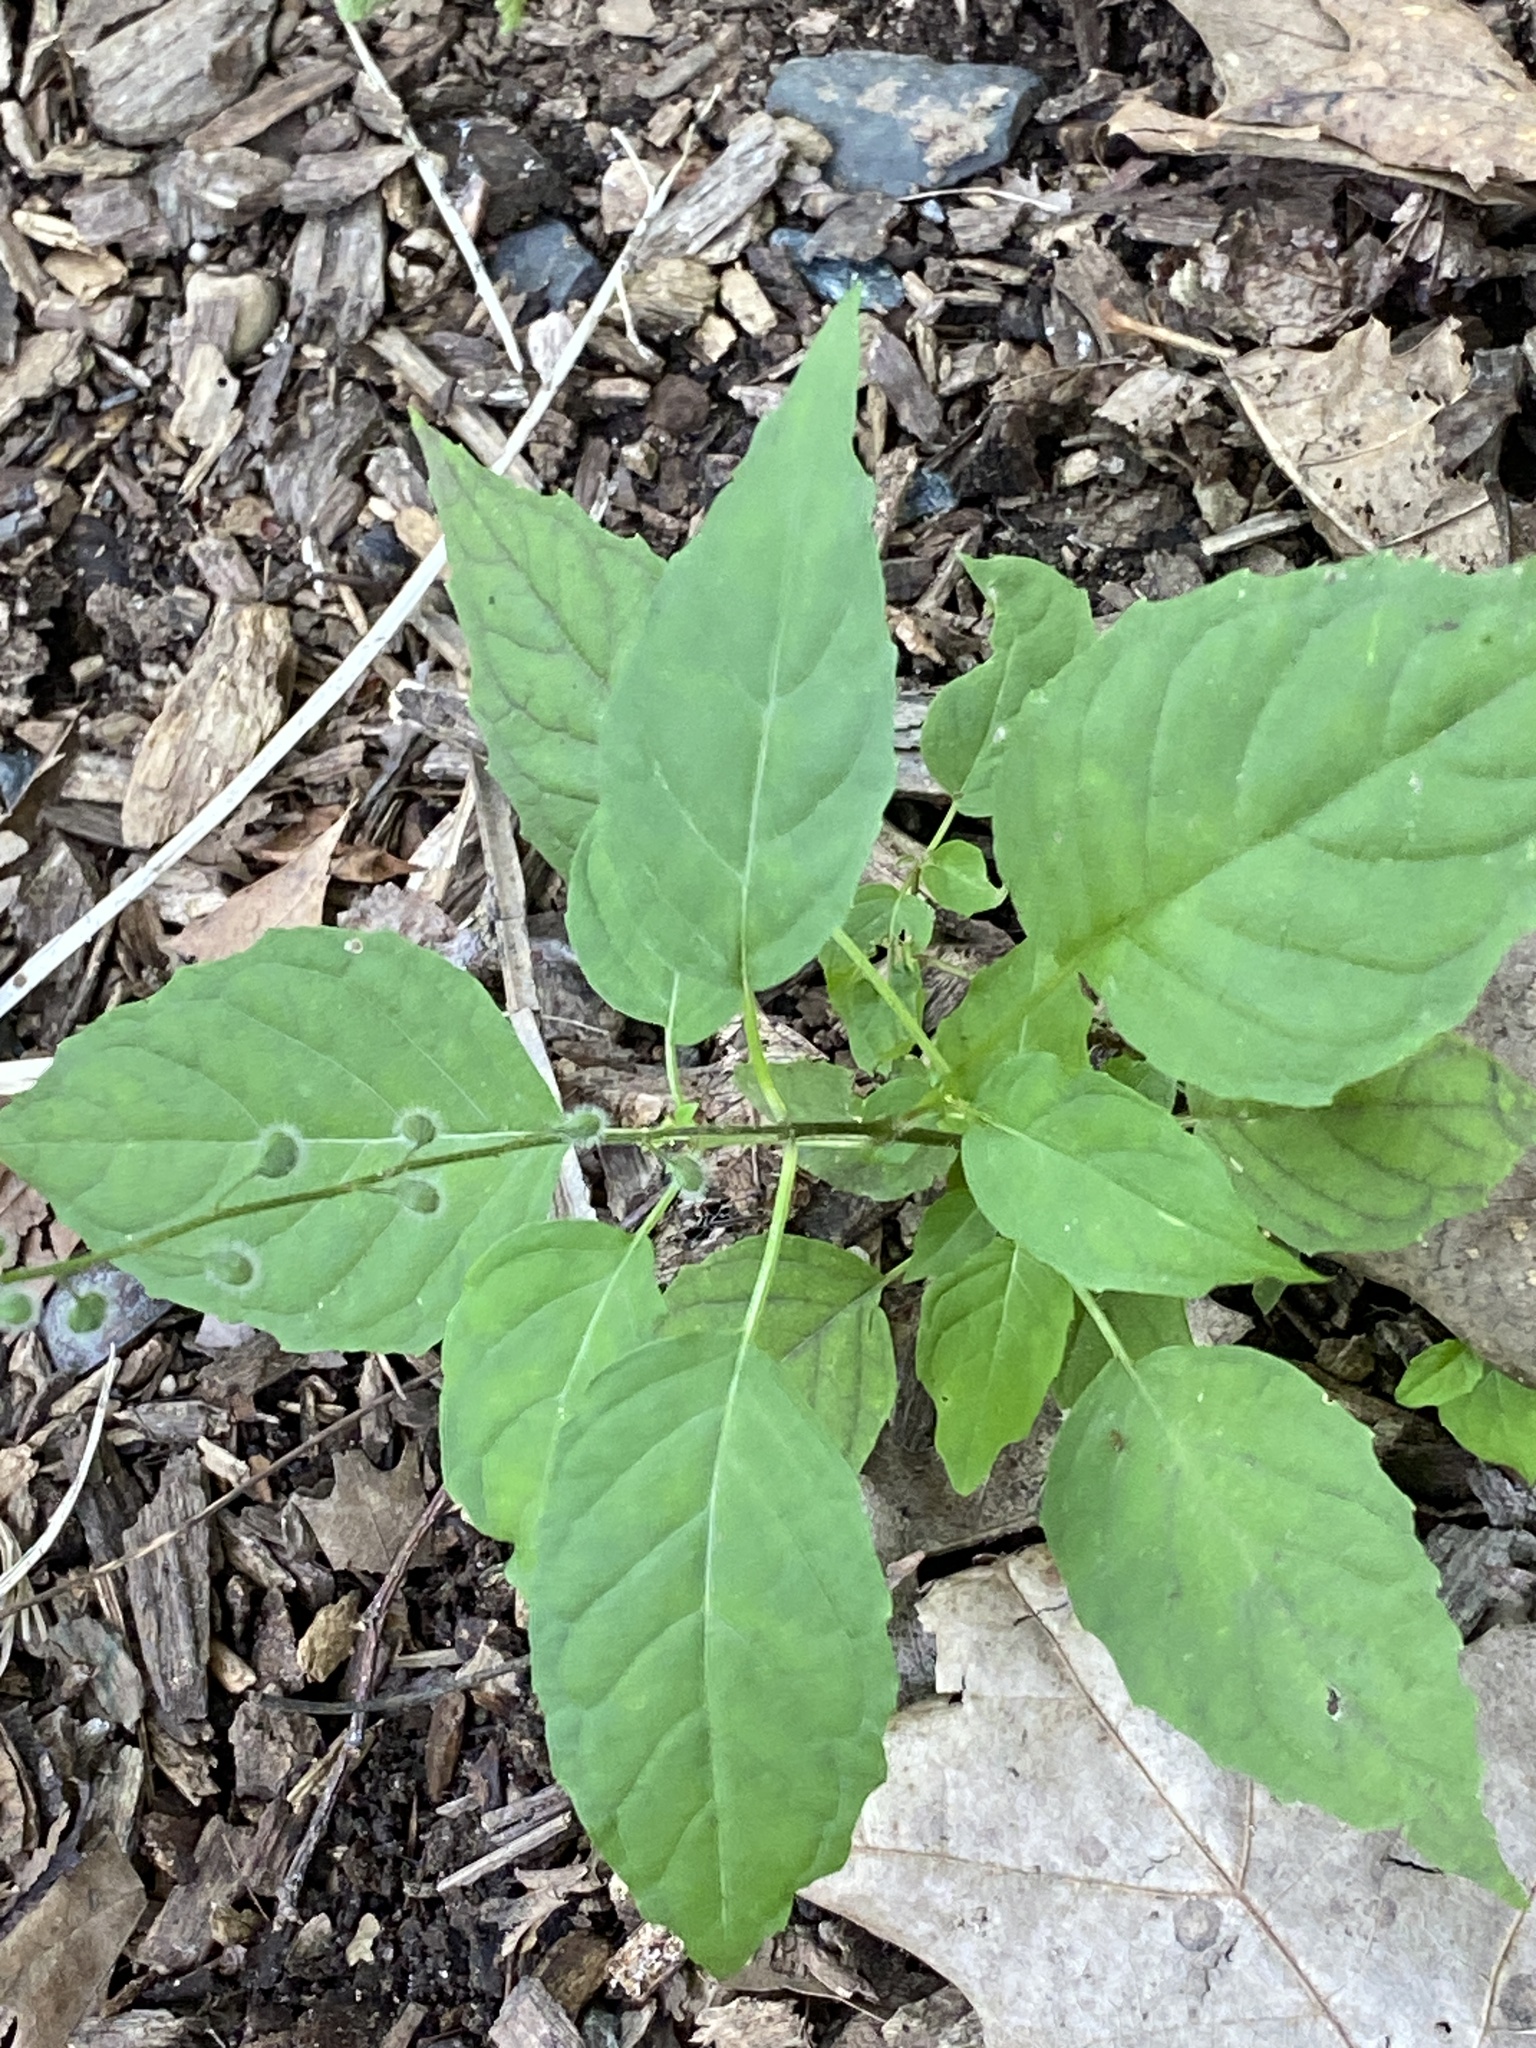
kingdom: Plantae
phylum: Tracheophyta
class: Magnoliopsida
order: Myrtales
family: Onagraceae
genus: Circaea
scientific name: Circaea canadensis
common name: Broad-leaved enchanter's nightshade
